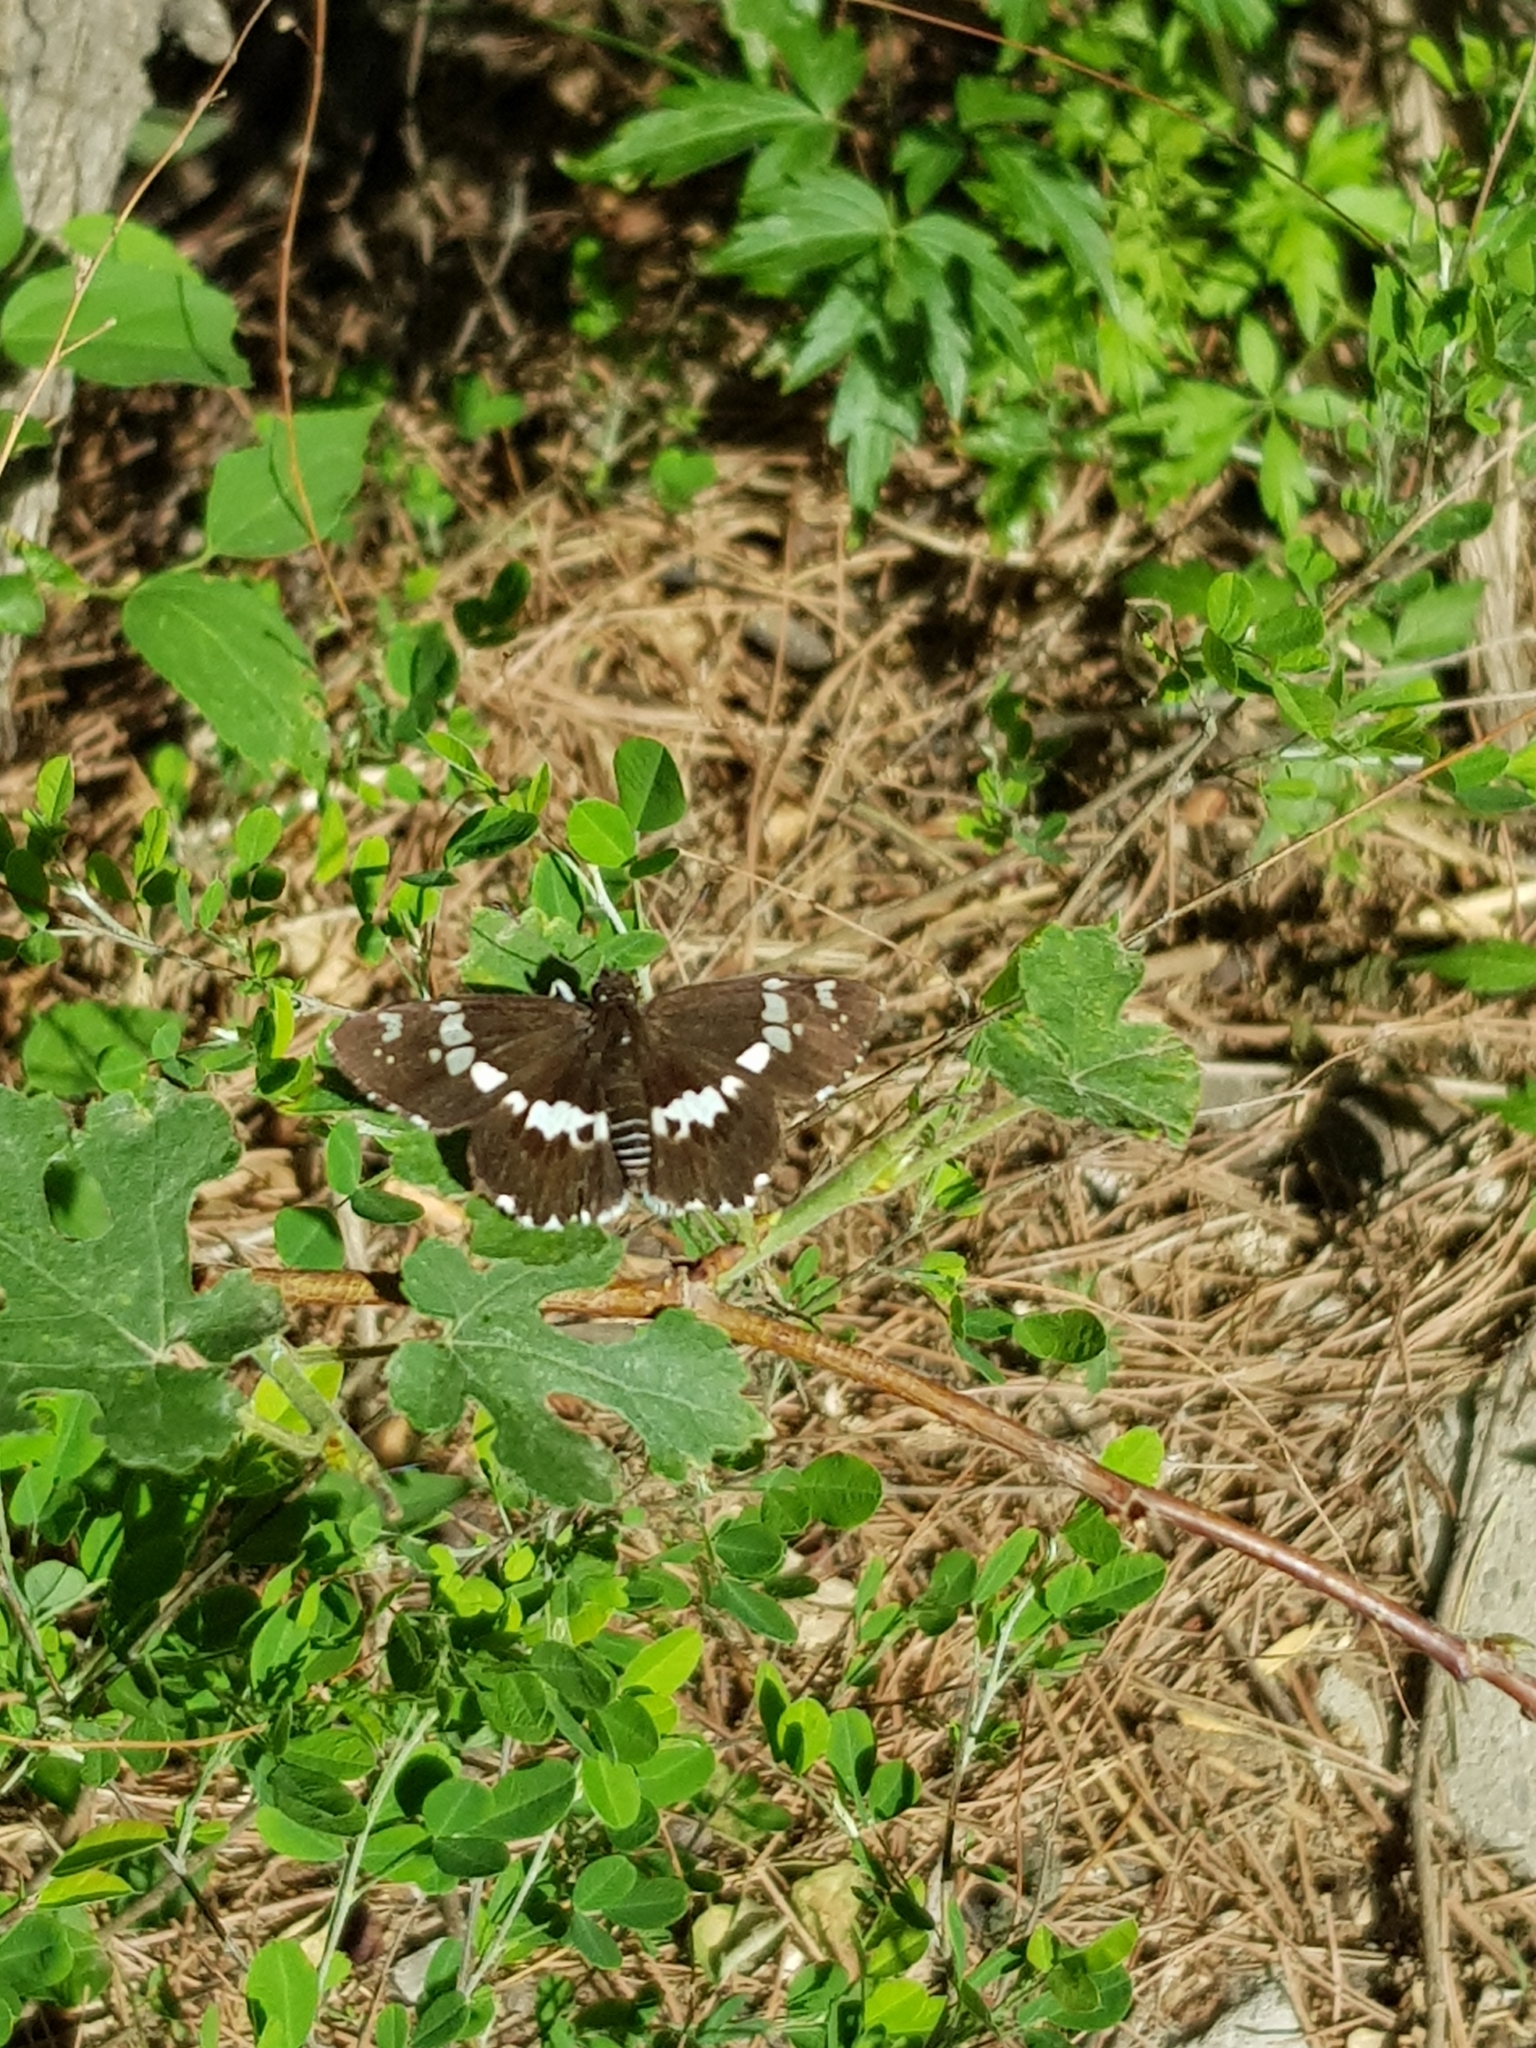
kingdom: Animalia
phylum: Arthropoda
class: Insecta
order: Lepidoptera
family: Hesperiidae
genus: Daimio
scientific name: Daimio tethys
